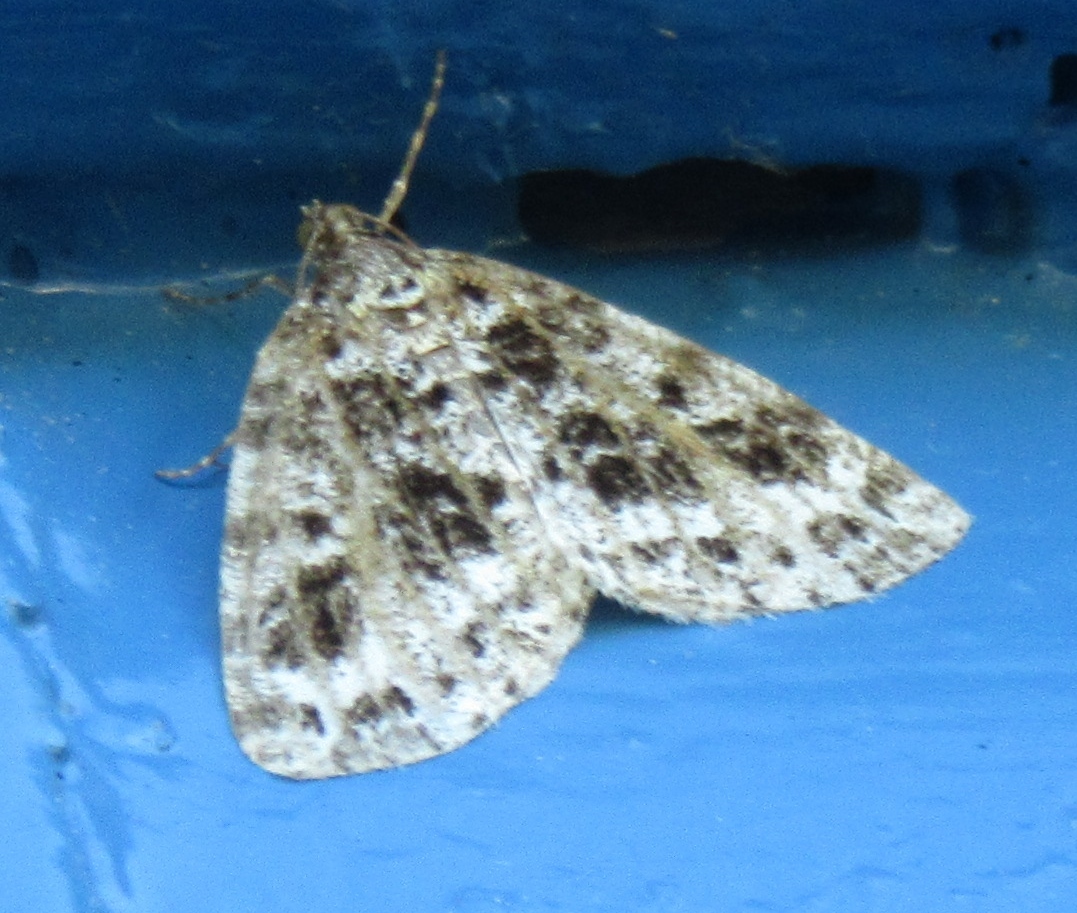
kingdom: Animalia
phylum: Arthropoda
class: Insecta
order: Lepidoptera
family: Geometridae
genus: Orthofidonia
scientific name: Orthofidonia flavivenata
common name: Yellow-veined geometer moth
